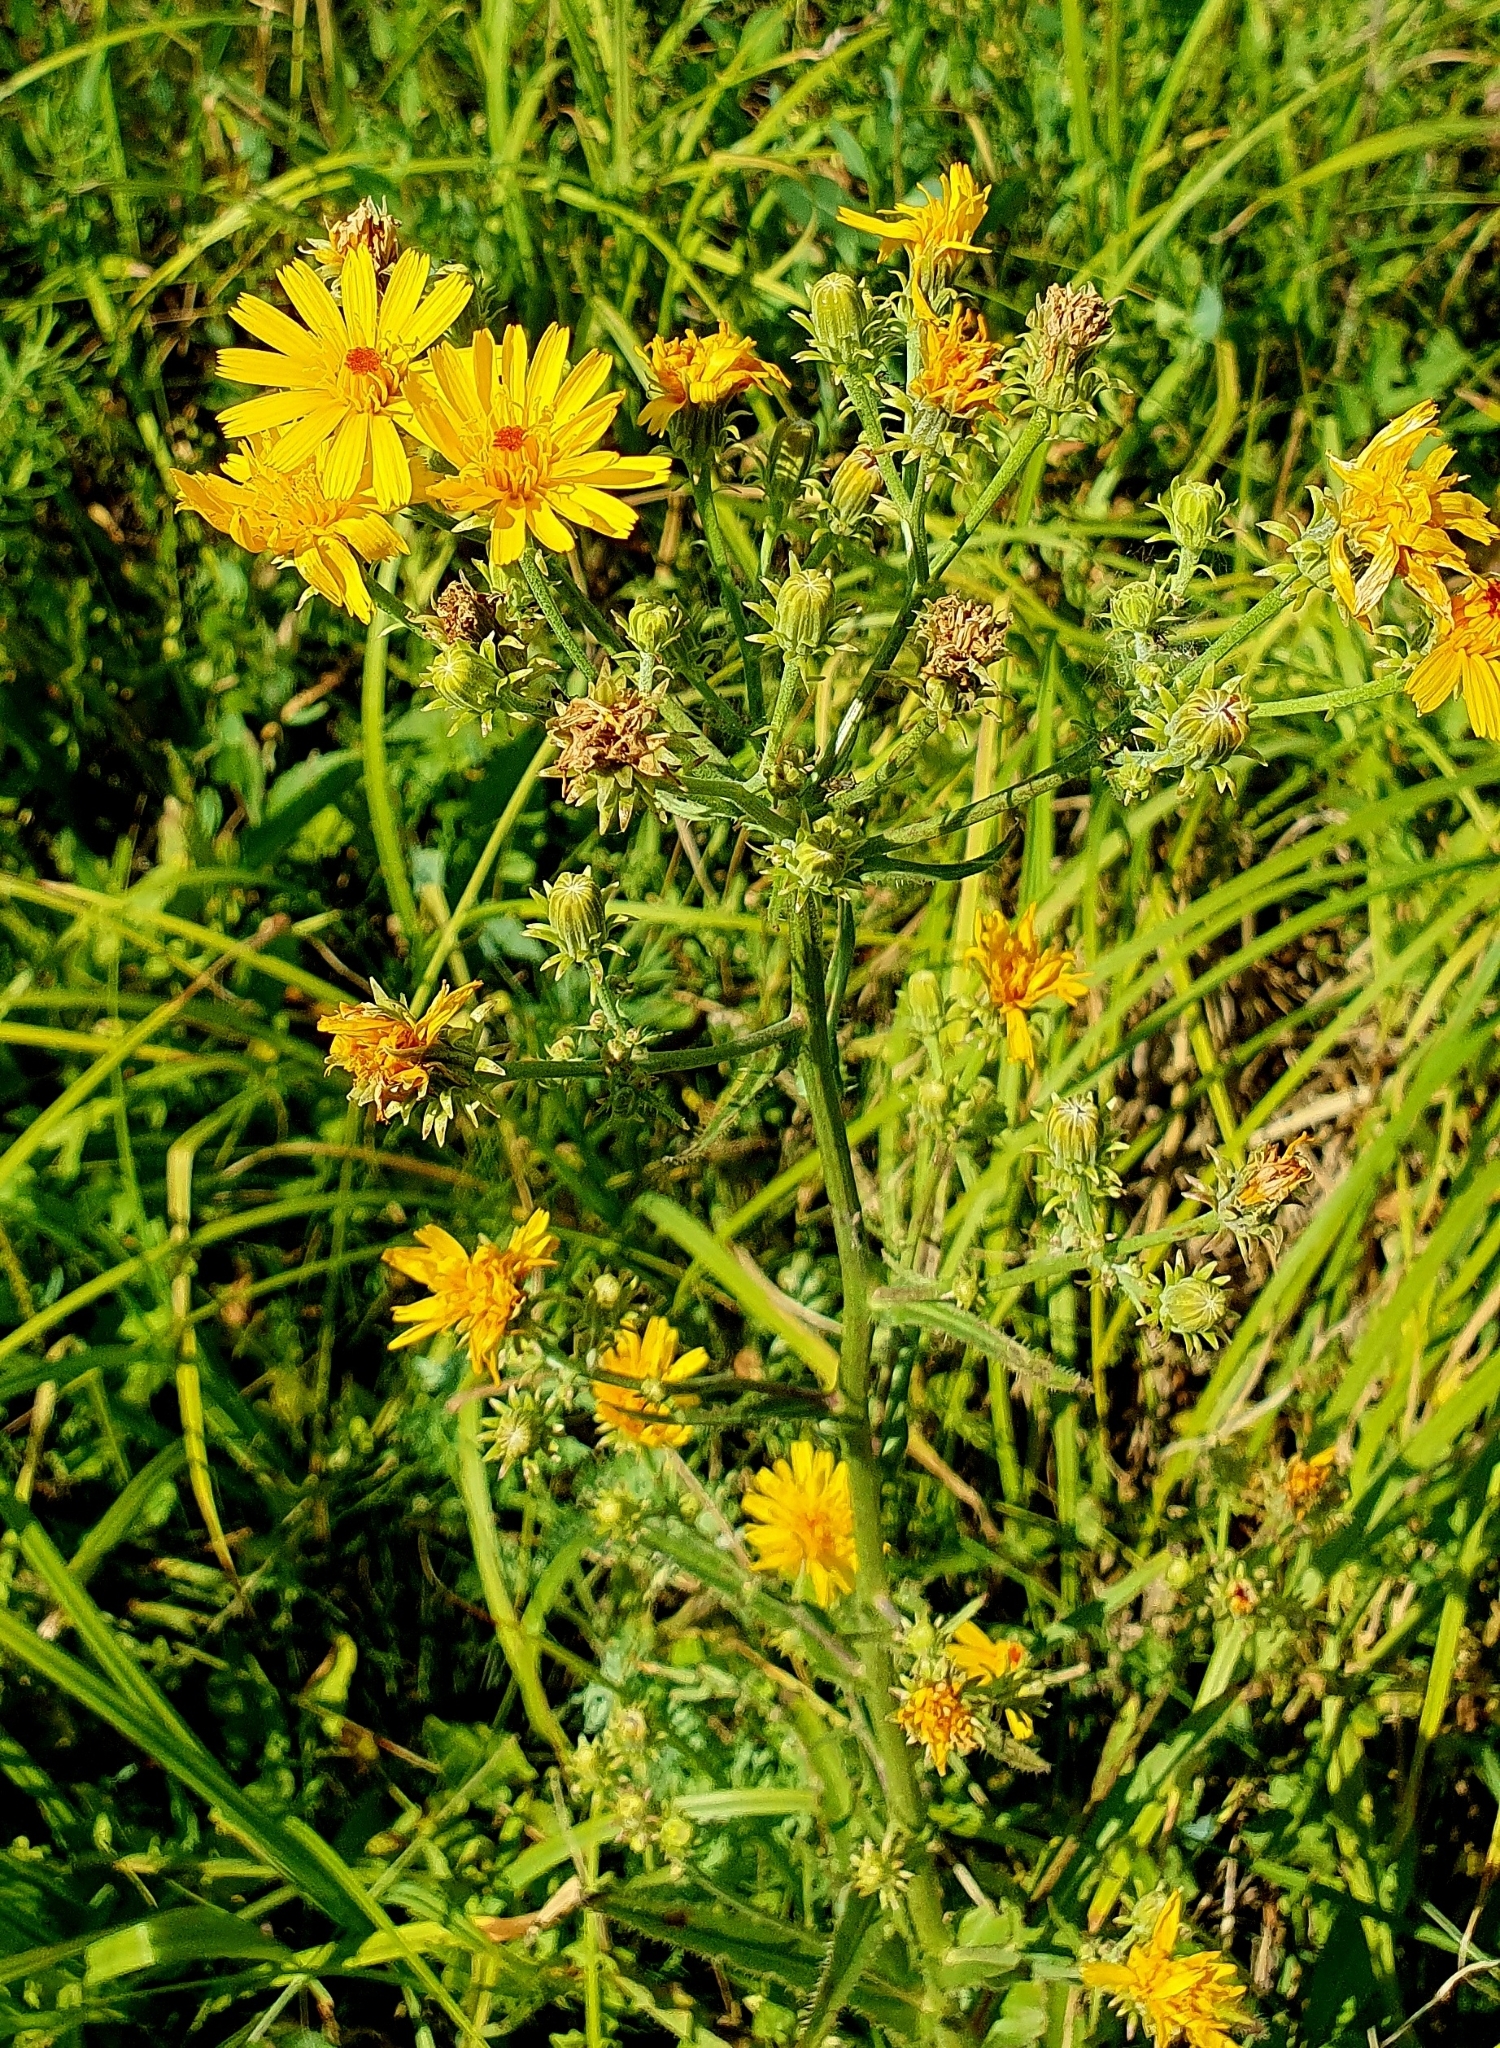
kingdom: Plantae
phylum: Tracheophyta
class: Magnoliopsida
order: Asterales
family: Asteraceae
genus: Picris
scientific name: Picris hieracioides
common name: Hawkweed oxtongue
